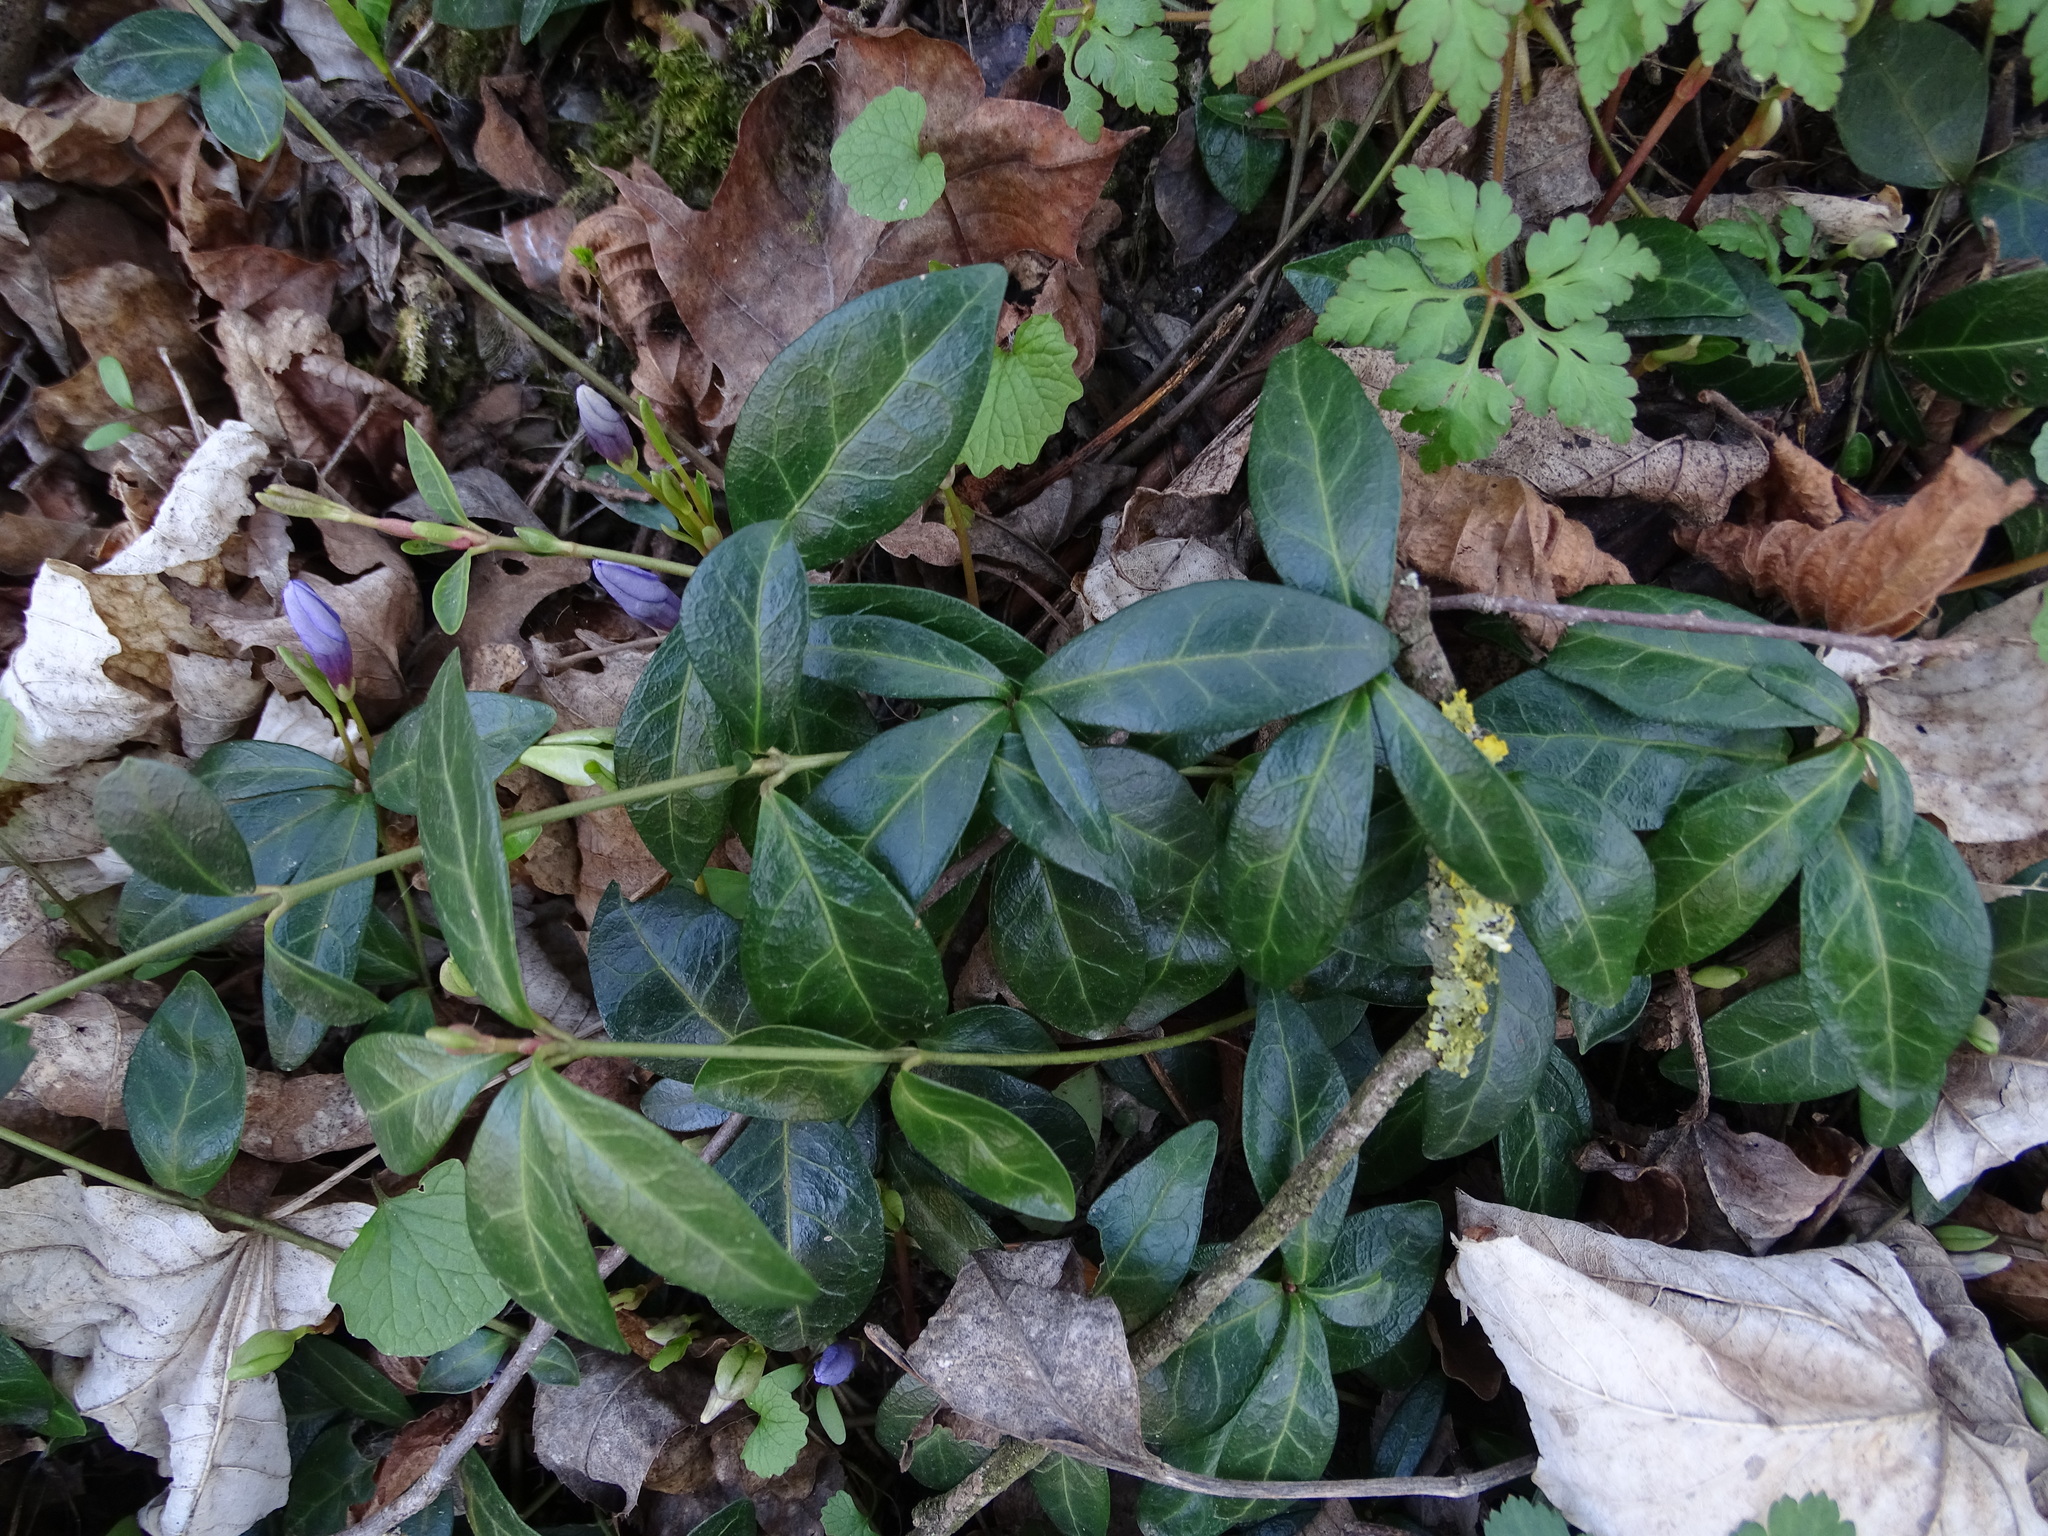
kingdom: Plantae
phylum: Tracheophyta
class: Magnoliopsida
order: Gentianales
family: Apocynaceae
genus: Vinca
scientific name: Vinca minor
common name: Lesser periwinkle
